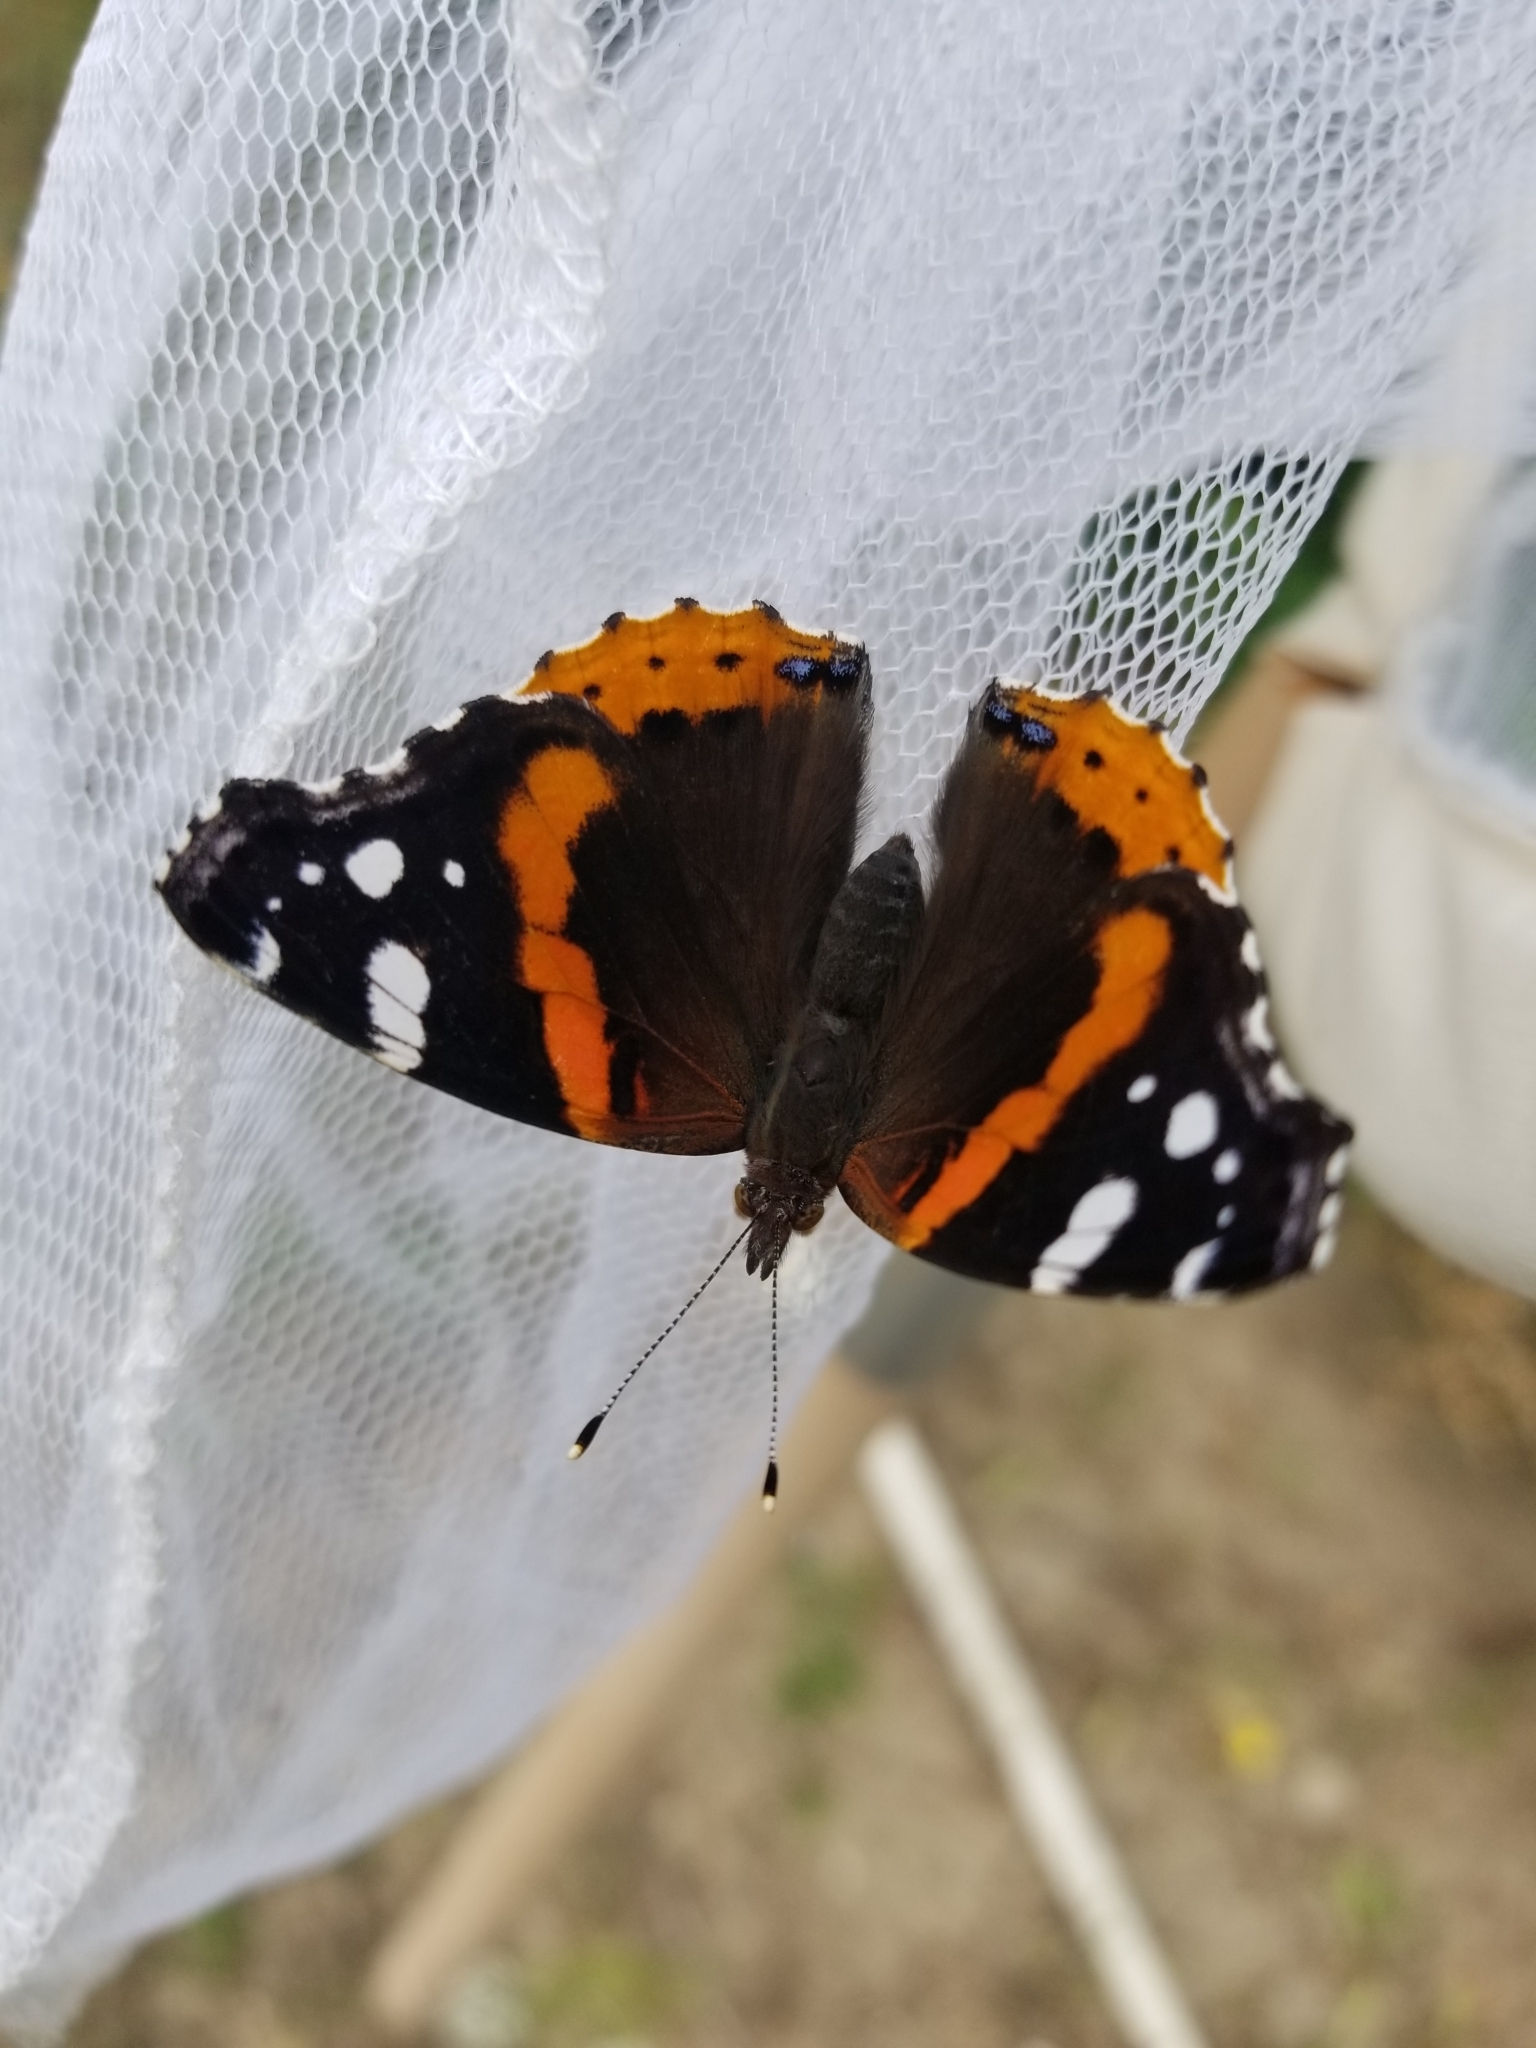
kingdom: Animalia
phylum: Arthropoda
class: Insecta
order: Lepidoptera
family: Nymphalidae
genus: Vanessa
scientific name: Vanessa atalanta
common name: Red admiral
